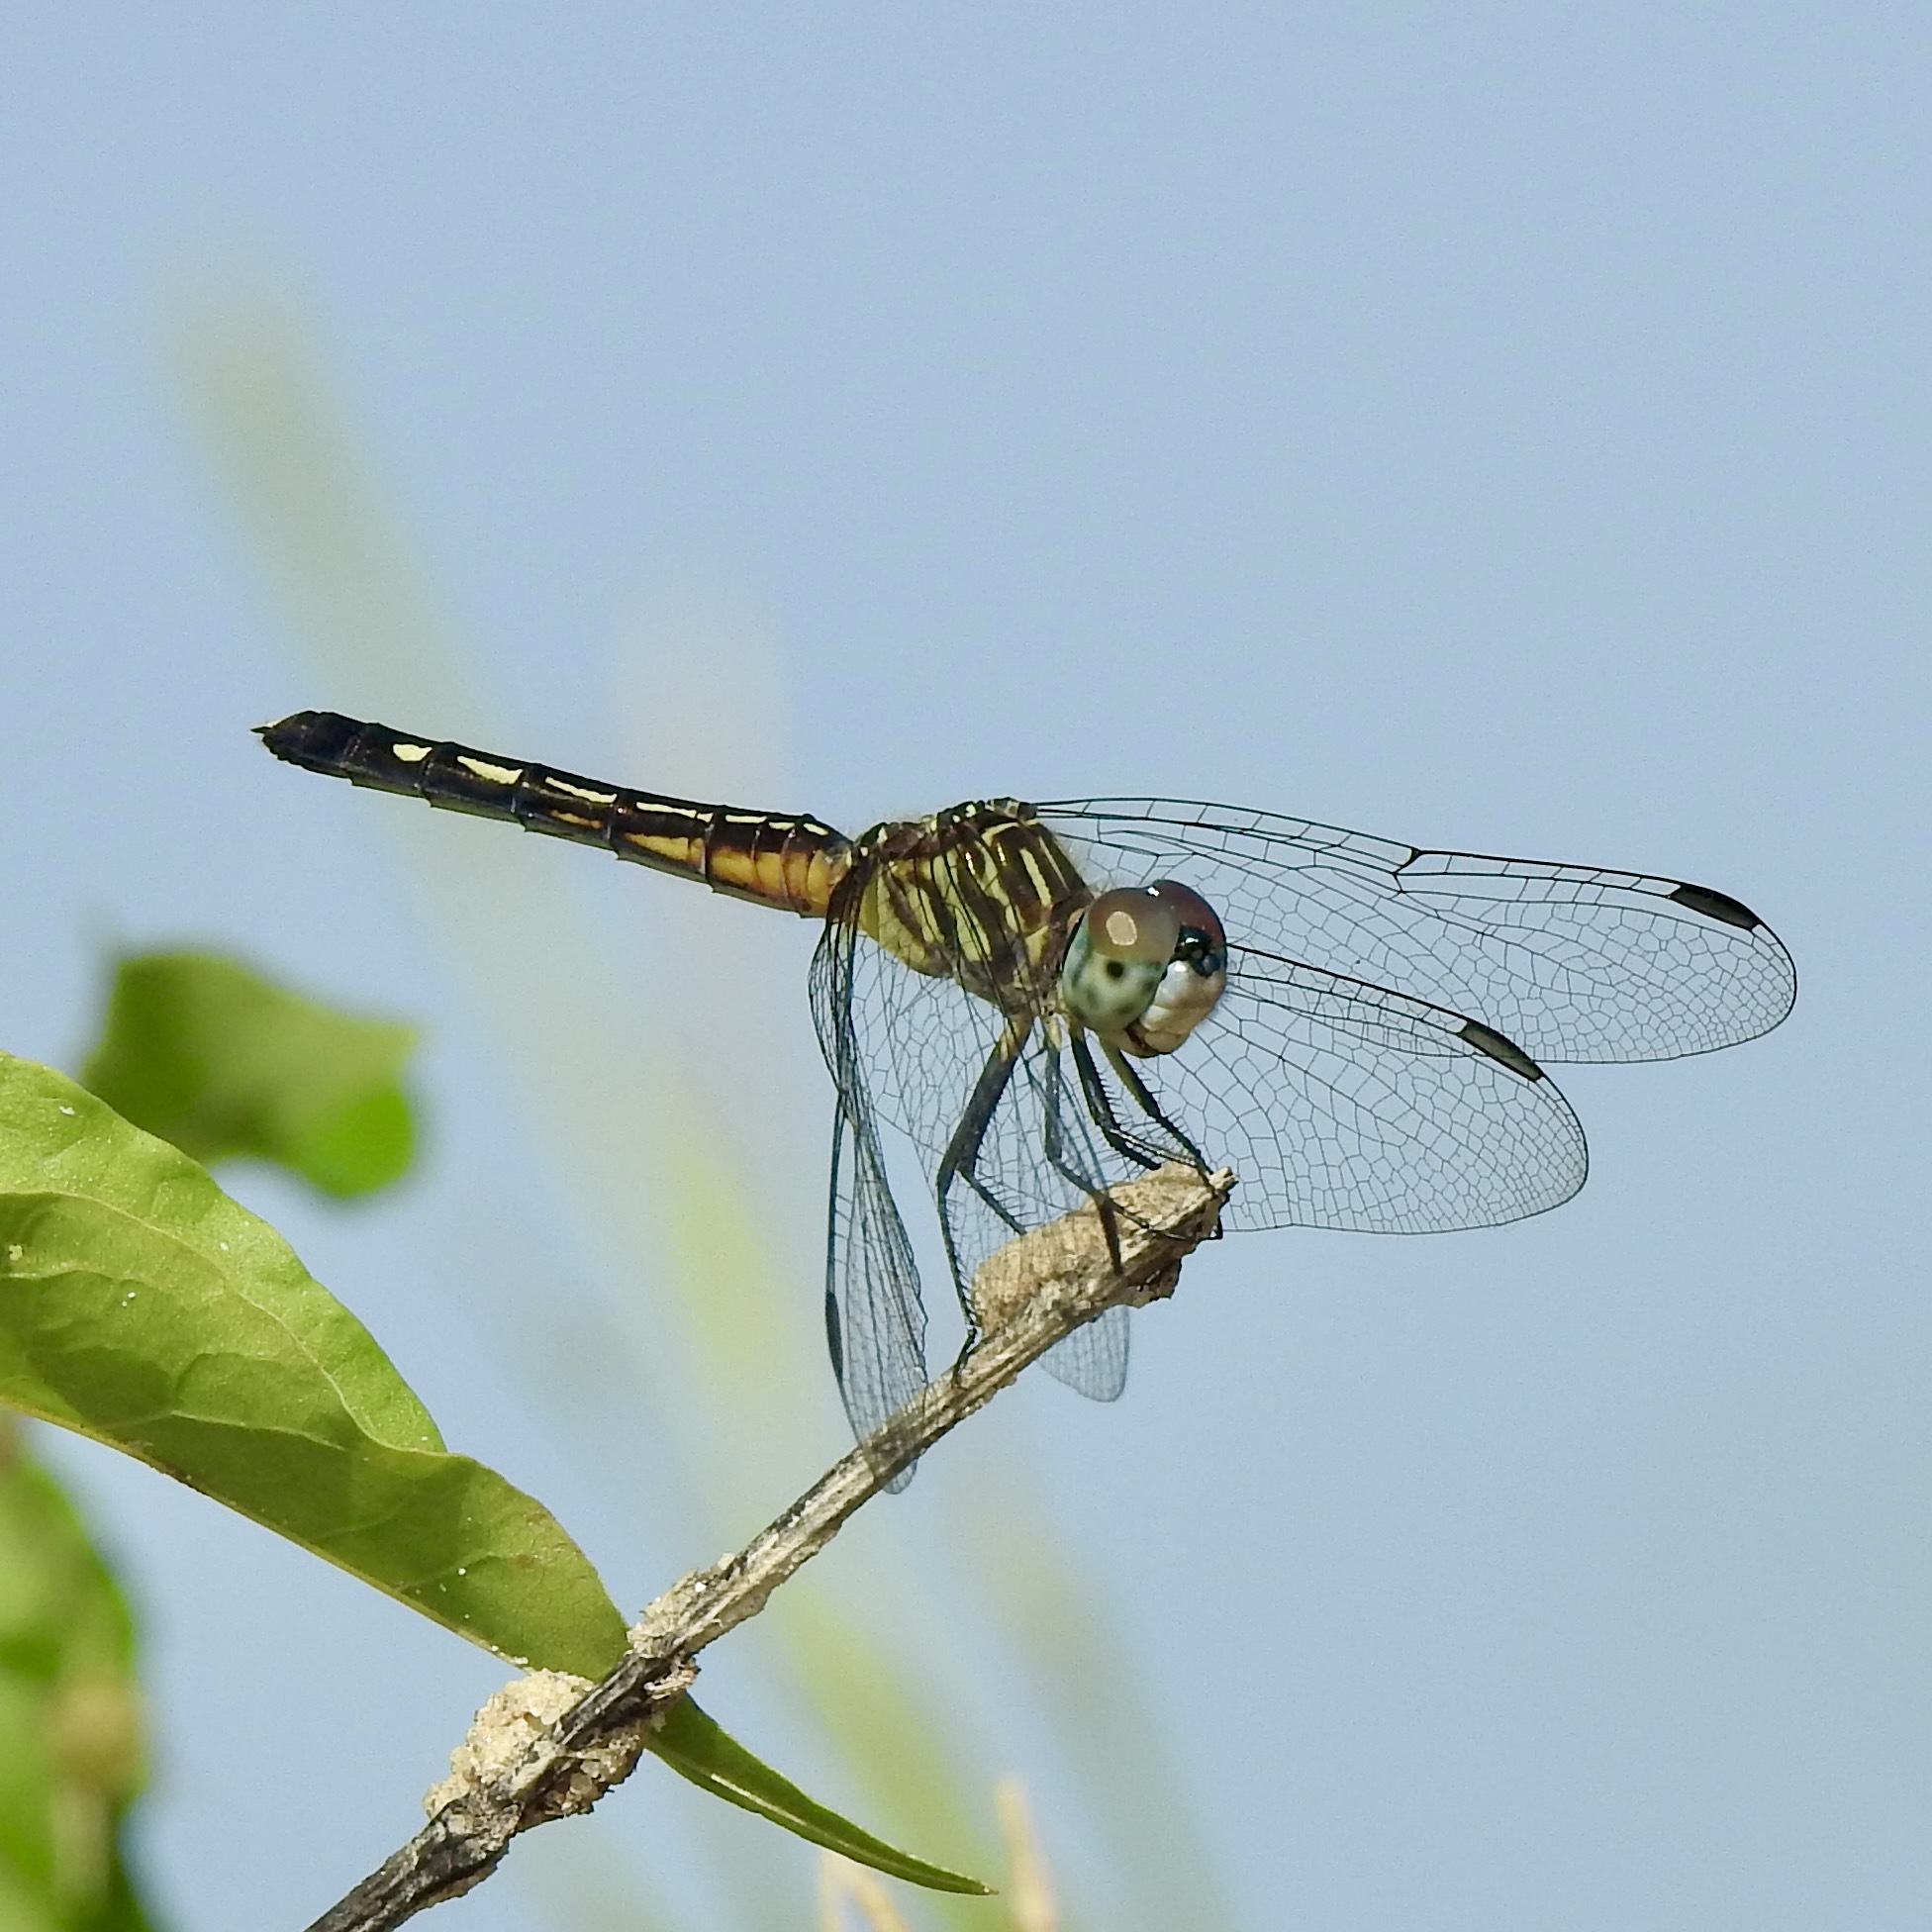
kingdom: Animalia
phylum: Arthropoda
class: Insecta
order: Odonata
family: Libellulidae
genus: Pachydiplax
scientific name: Pachydiplax longipennis
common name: Blue dasher
